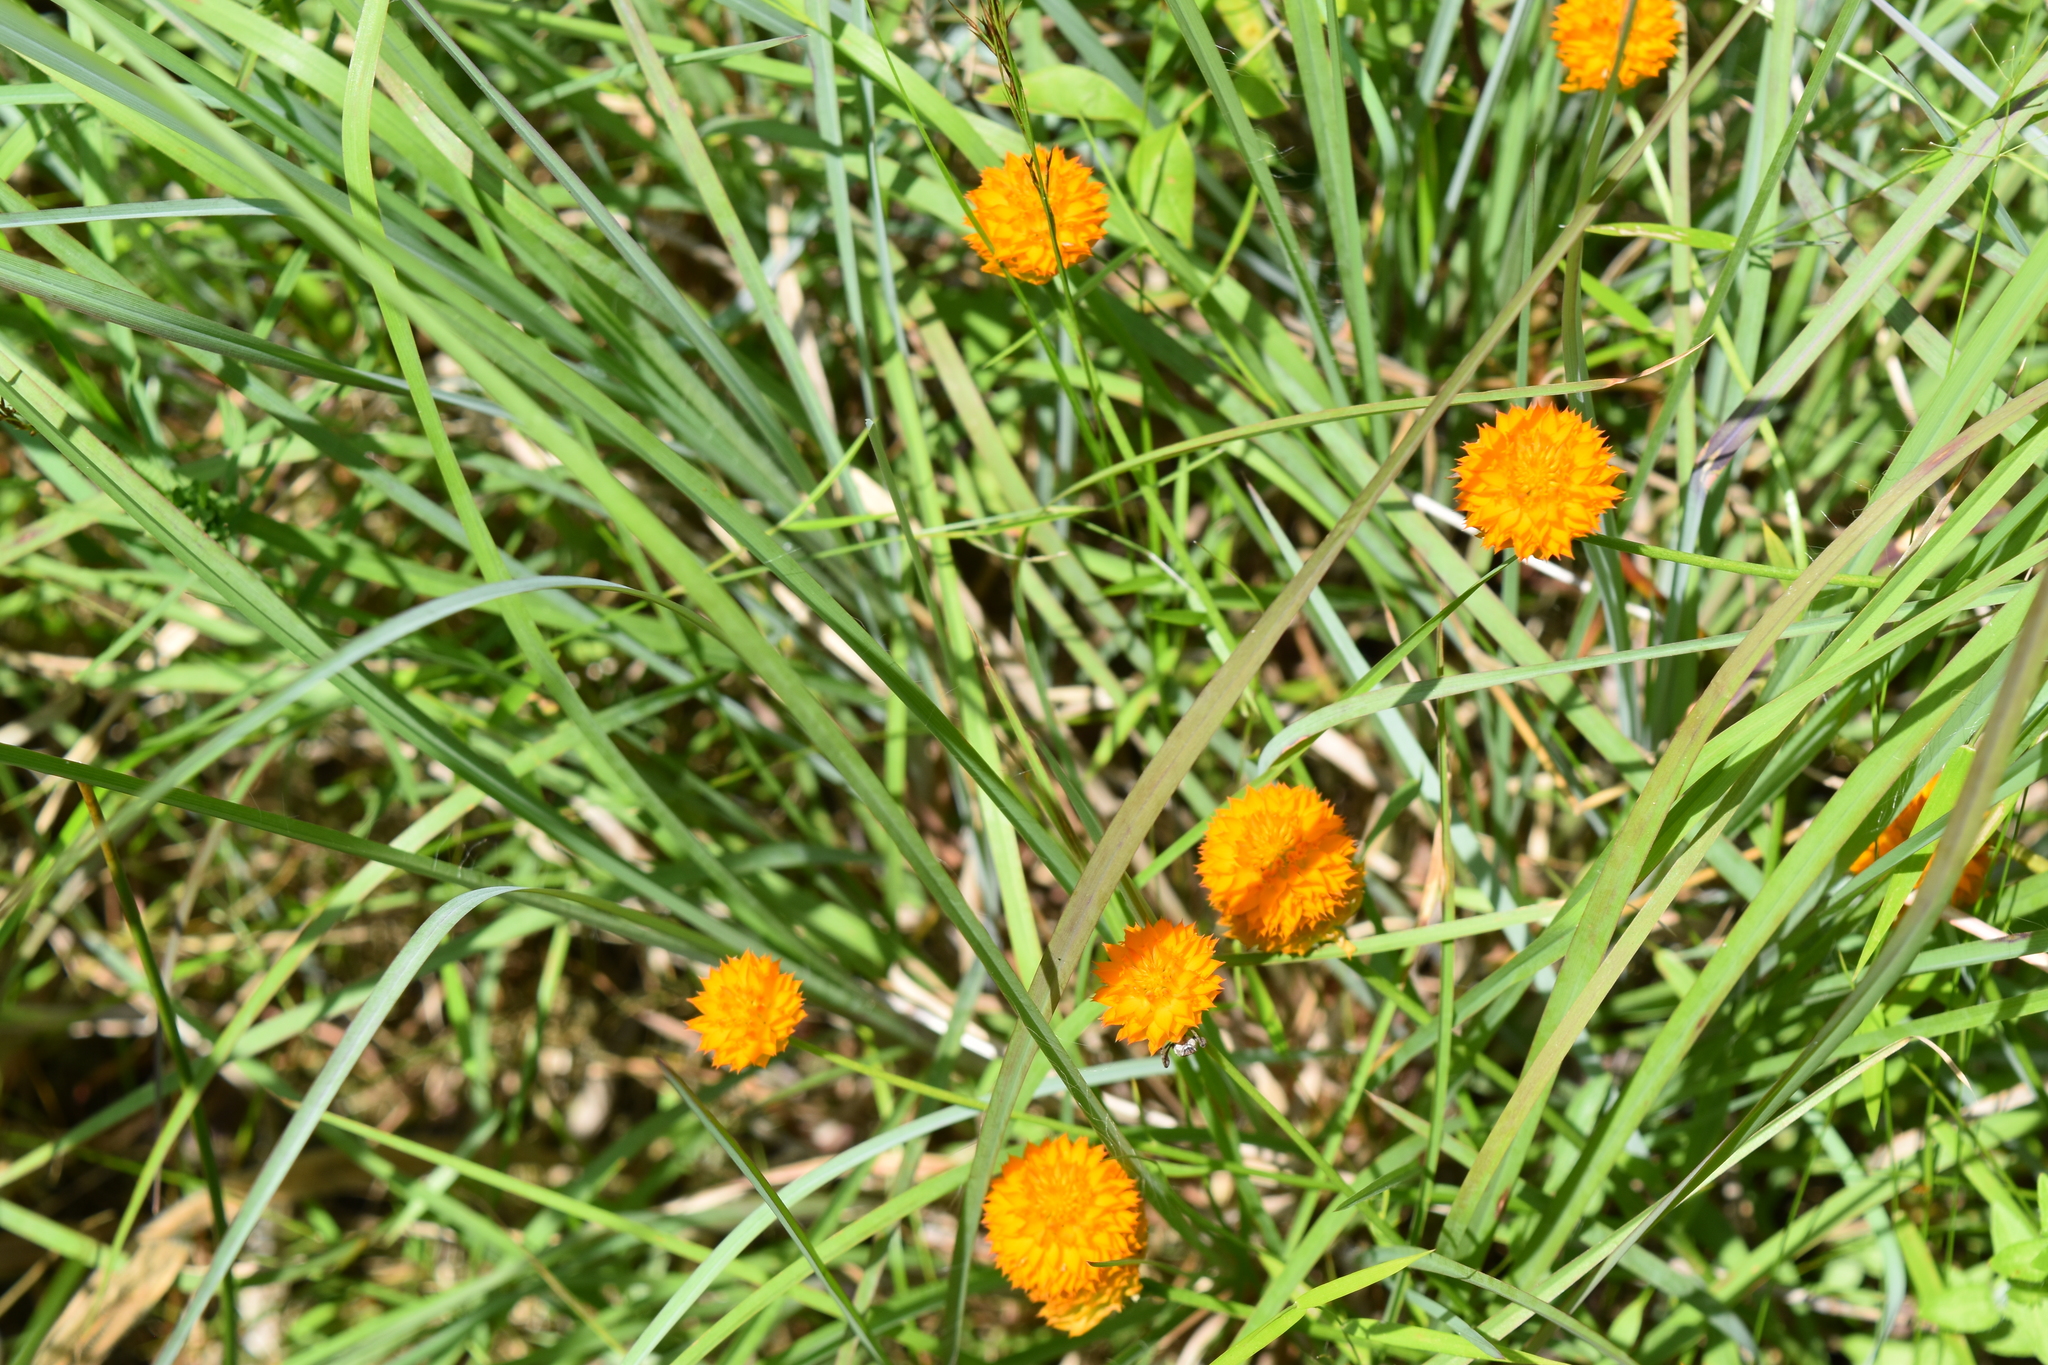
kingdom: Plantae
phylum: Tracheophyta
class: Magnoliopsida
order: Fabales
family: Polygalaceae
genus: Polygala
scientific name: Polygala lutea
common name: Orange milkwort
